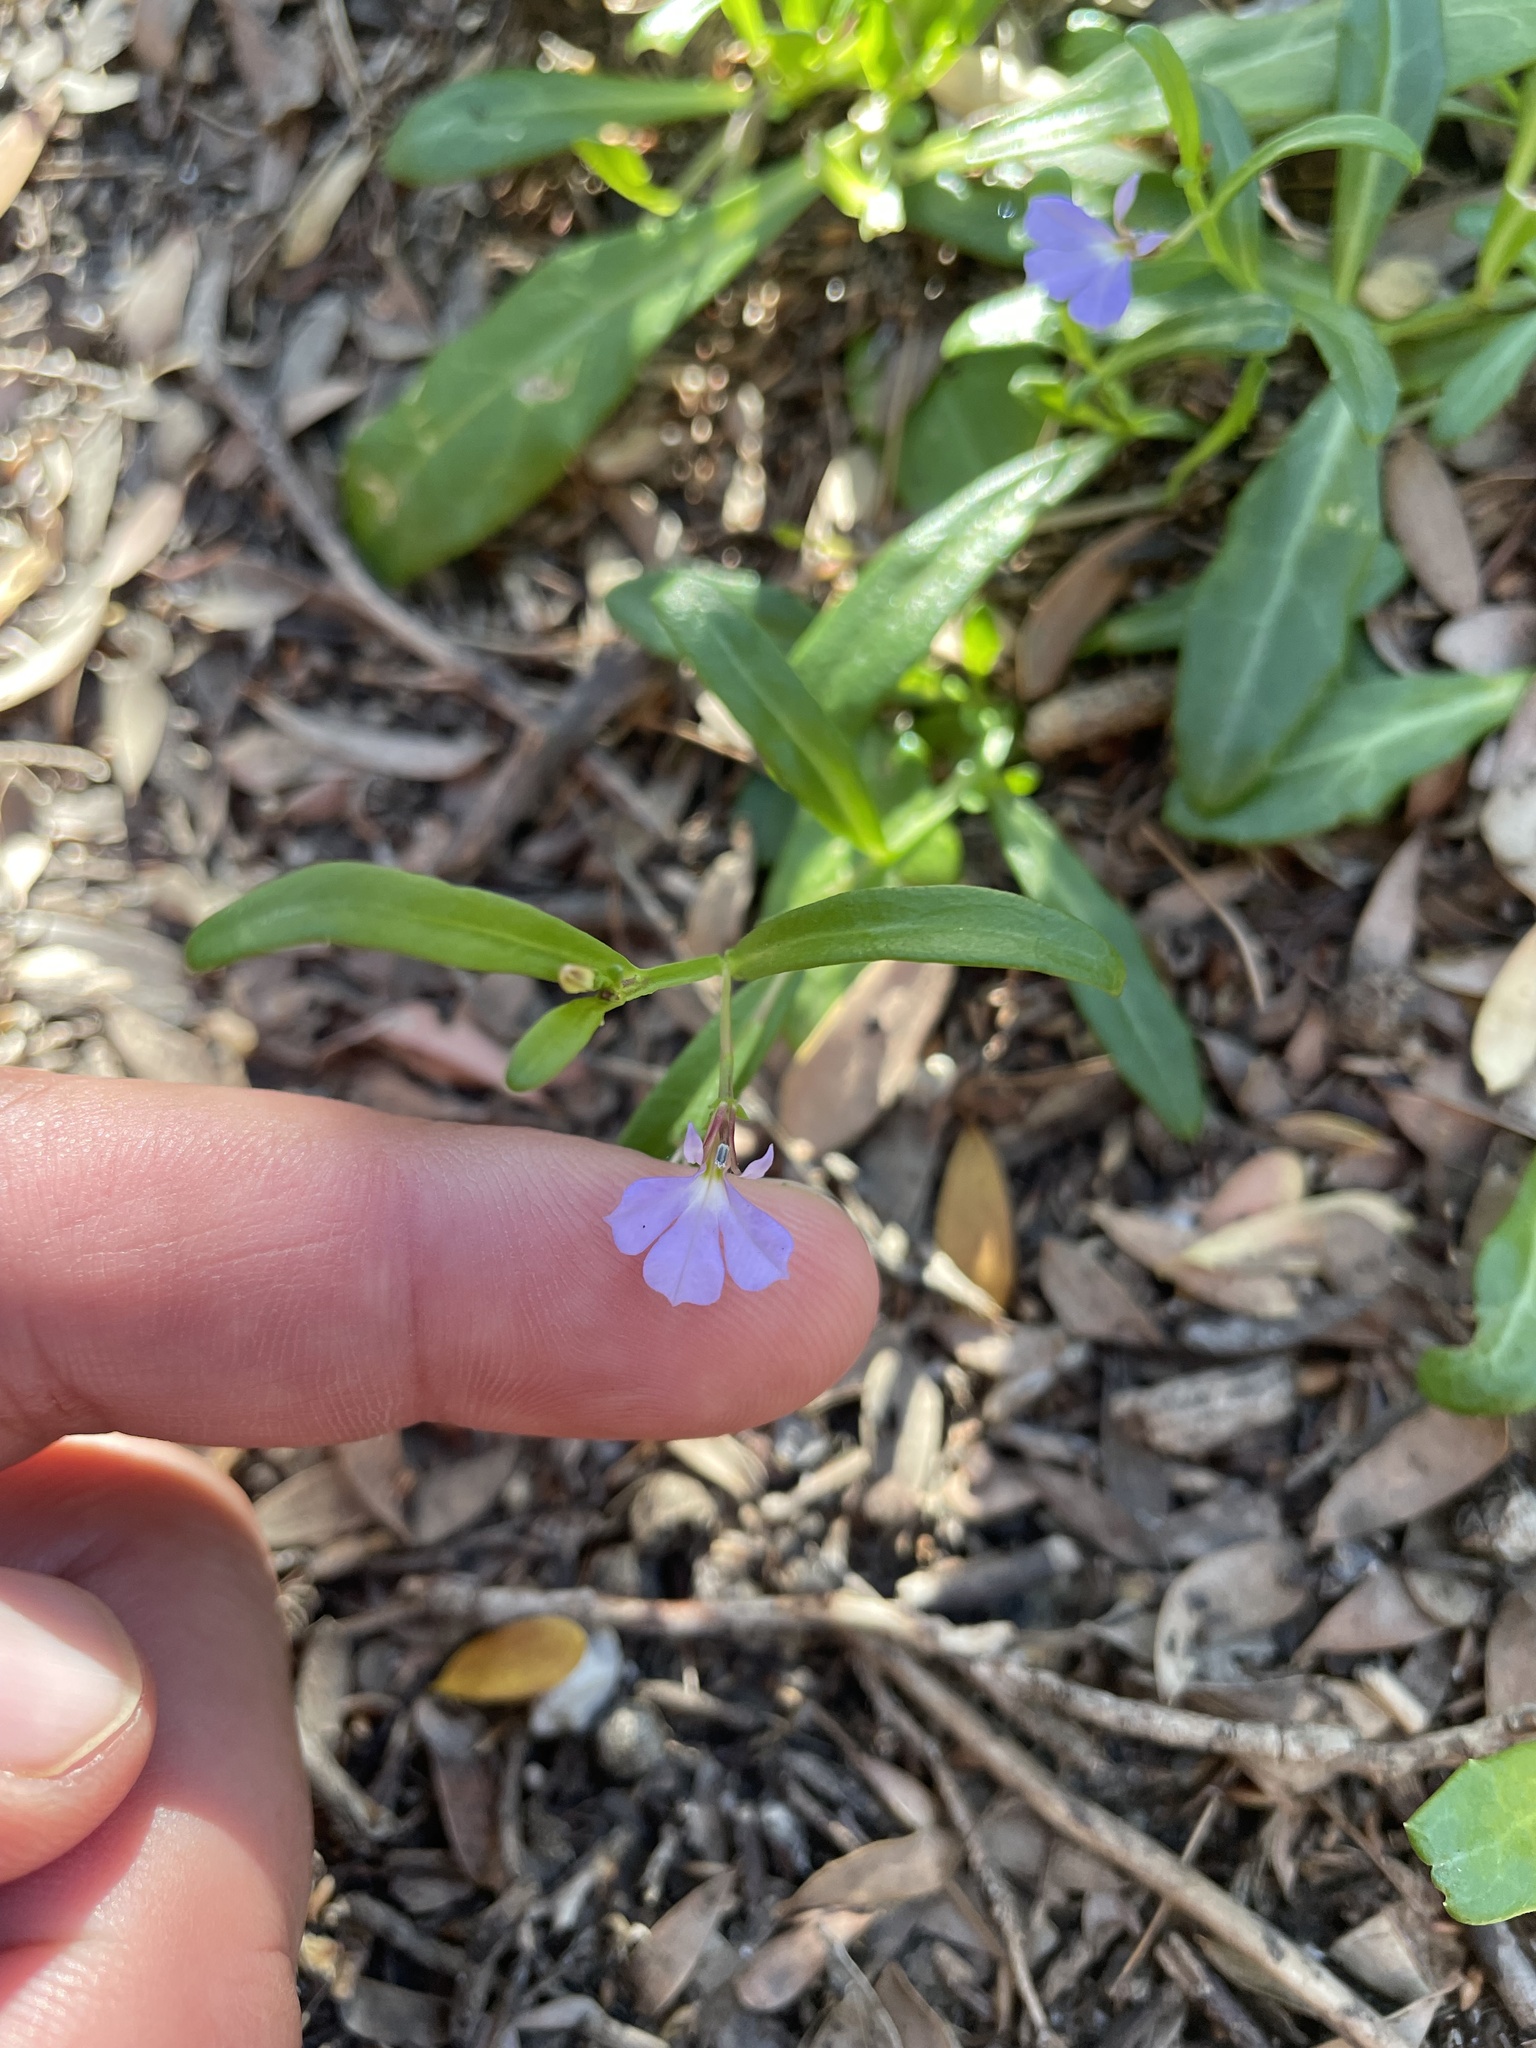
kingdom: Plantae
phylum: Tracheophyta
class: Magnoliopsida
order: Asterales
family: Campanulaceae
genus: Lobelia
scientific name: Lobelia anceps
